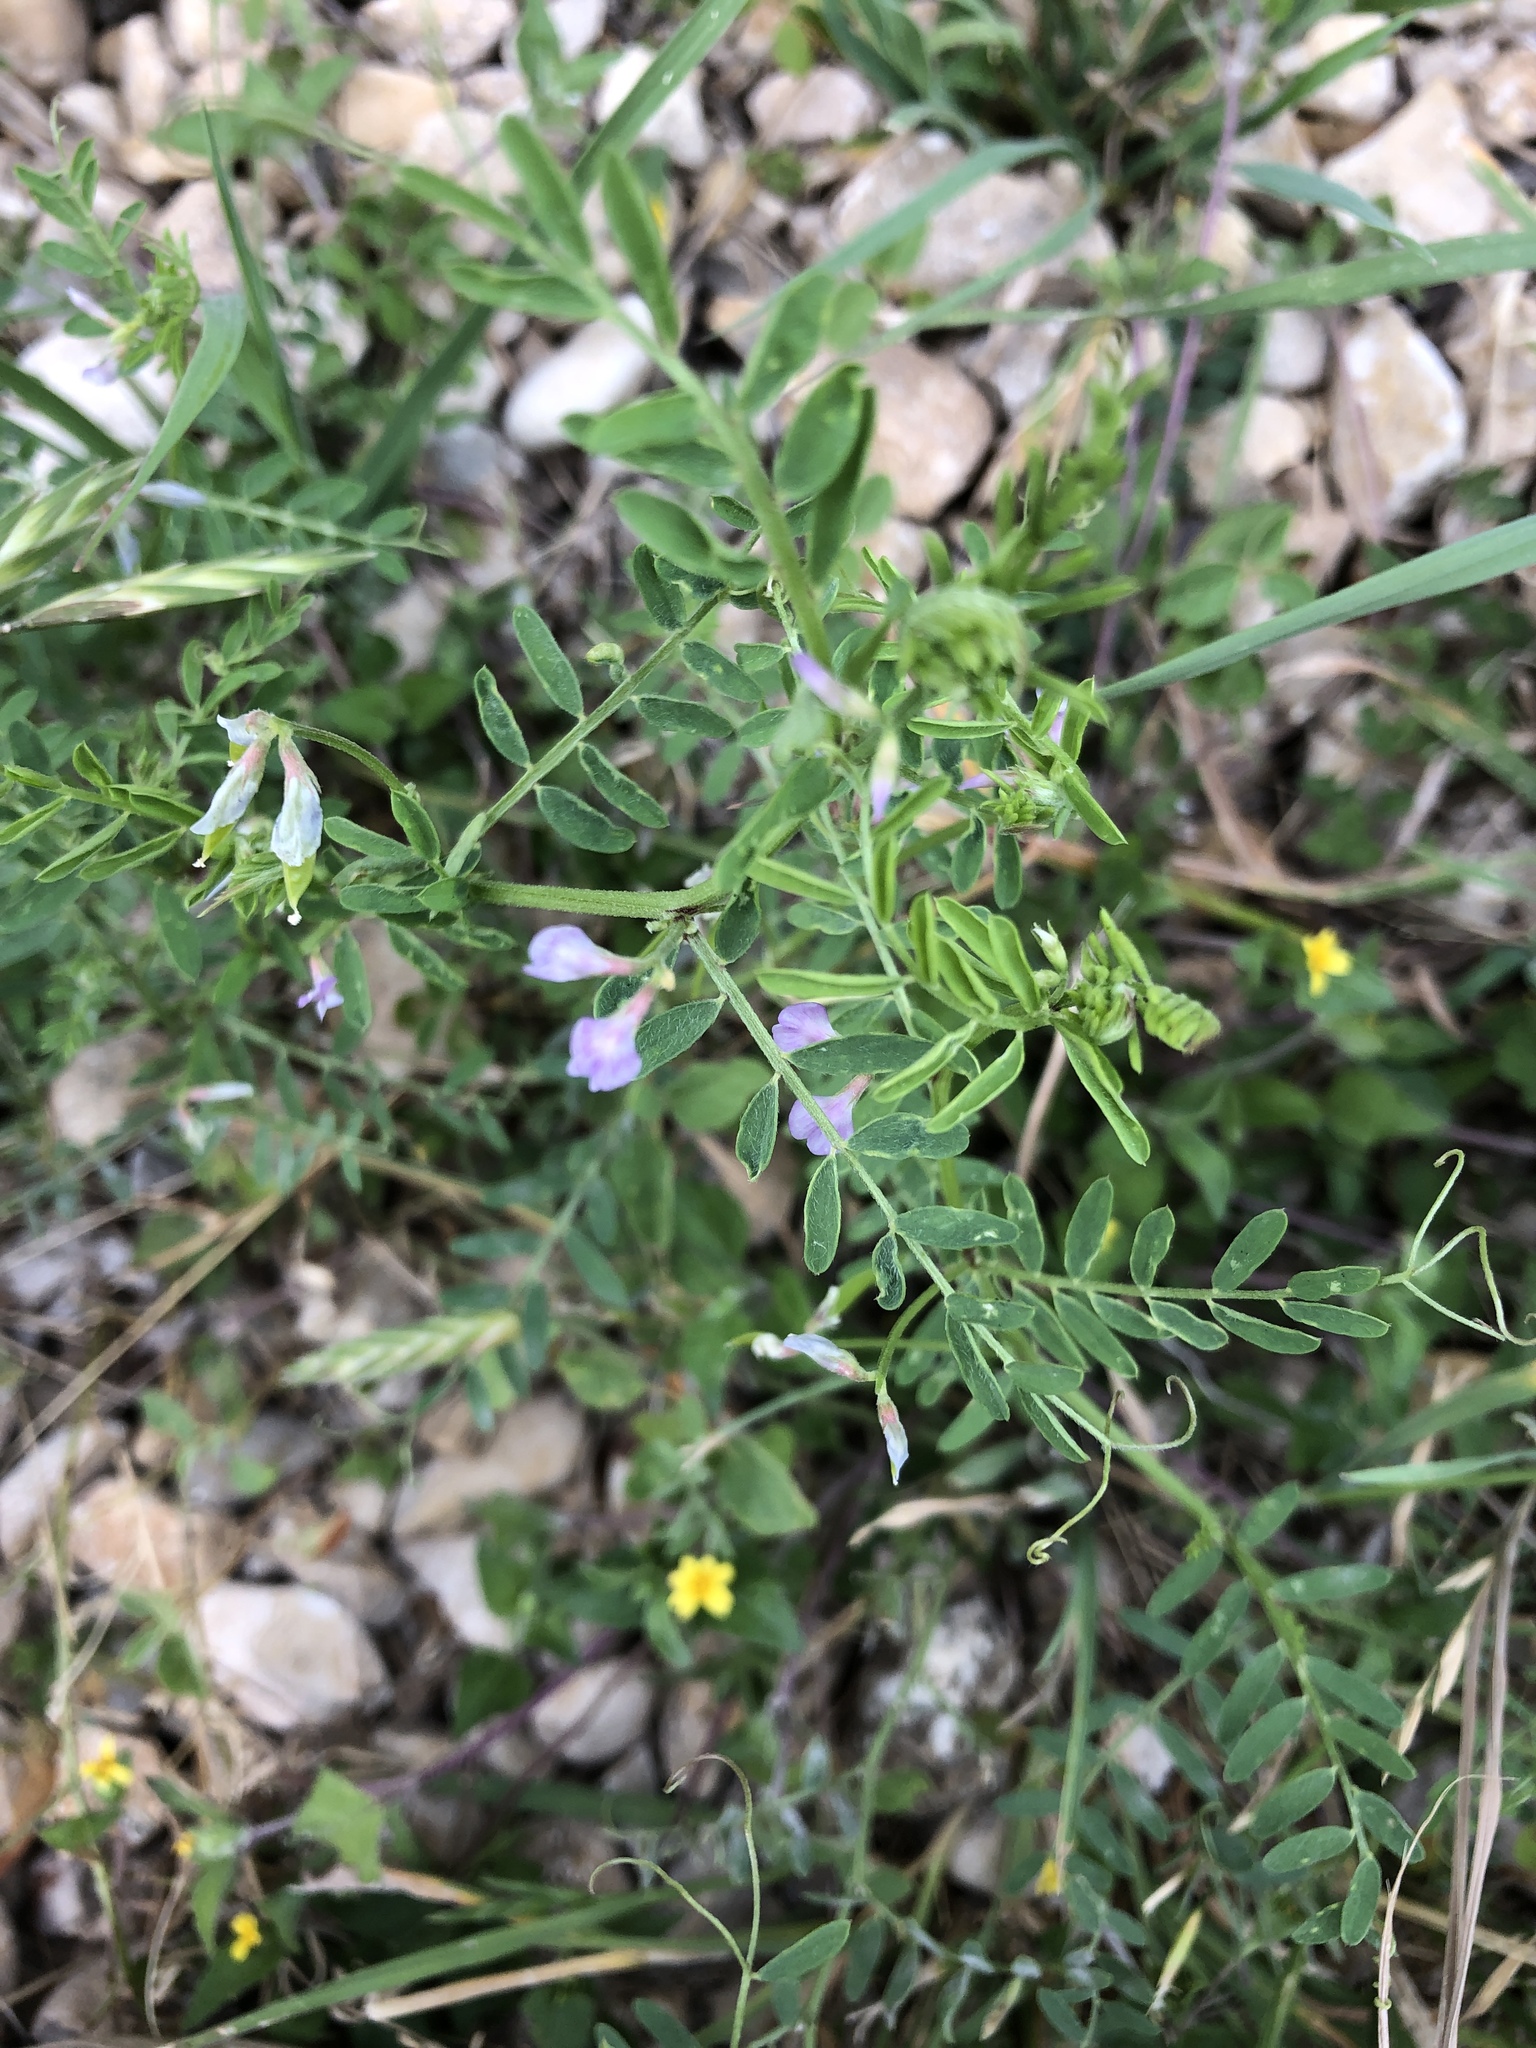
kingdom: Plantae
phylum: Tracheophyta
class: Magnoliopsida
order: Fabales
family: Fabaceae
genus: Vicia
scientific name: Vicia ludoviciana
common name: Louisiana vetch
